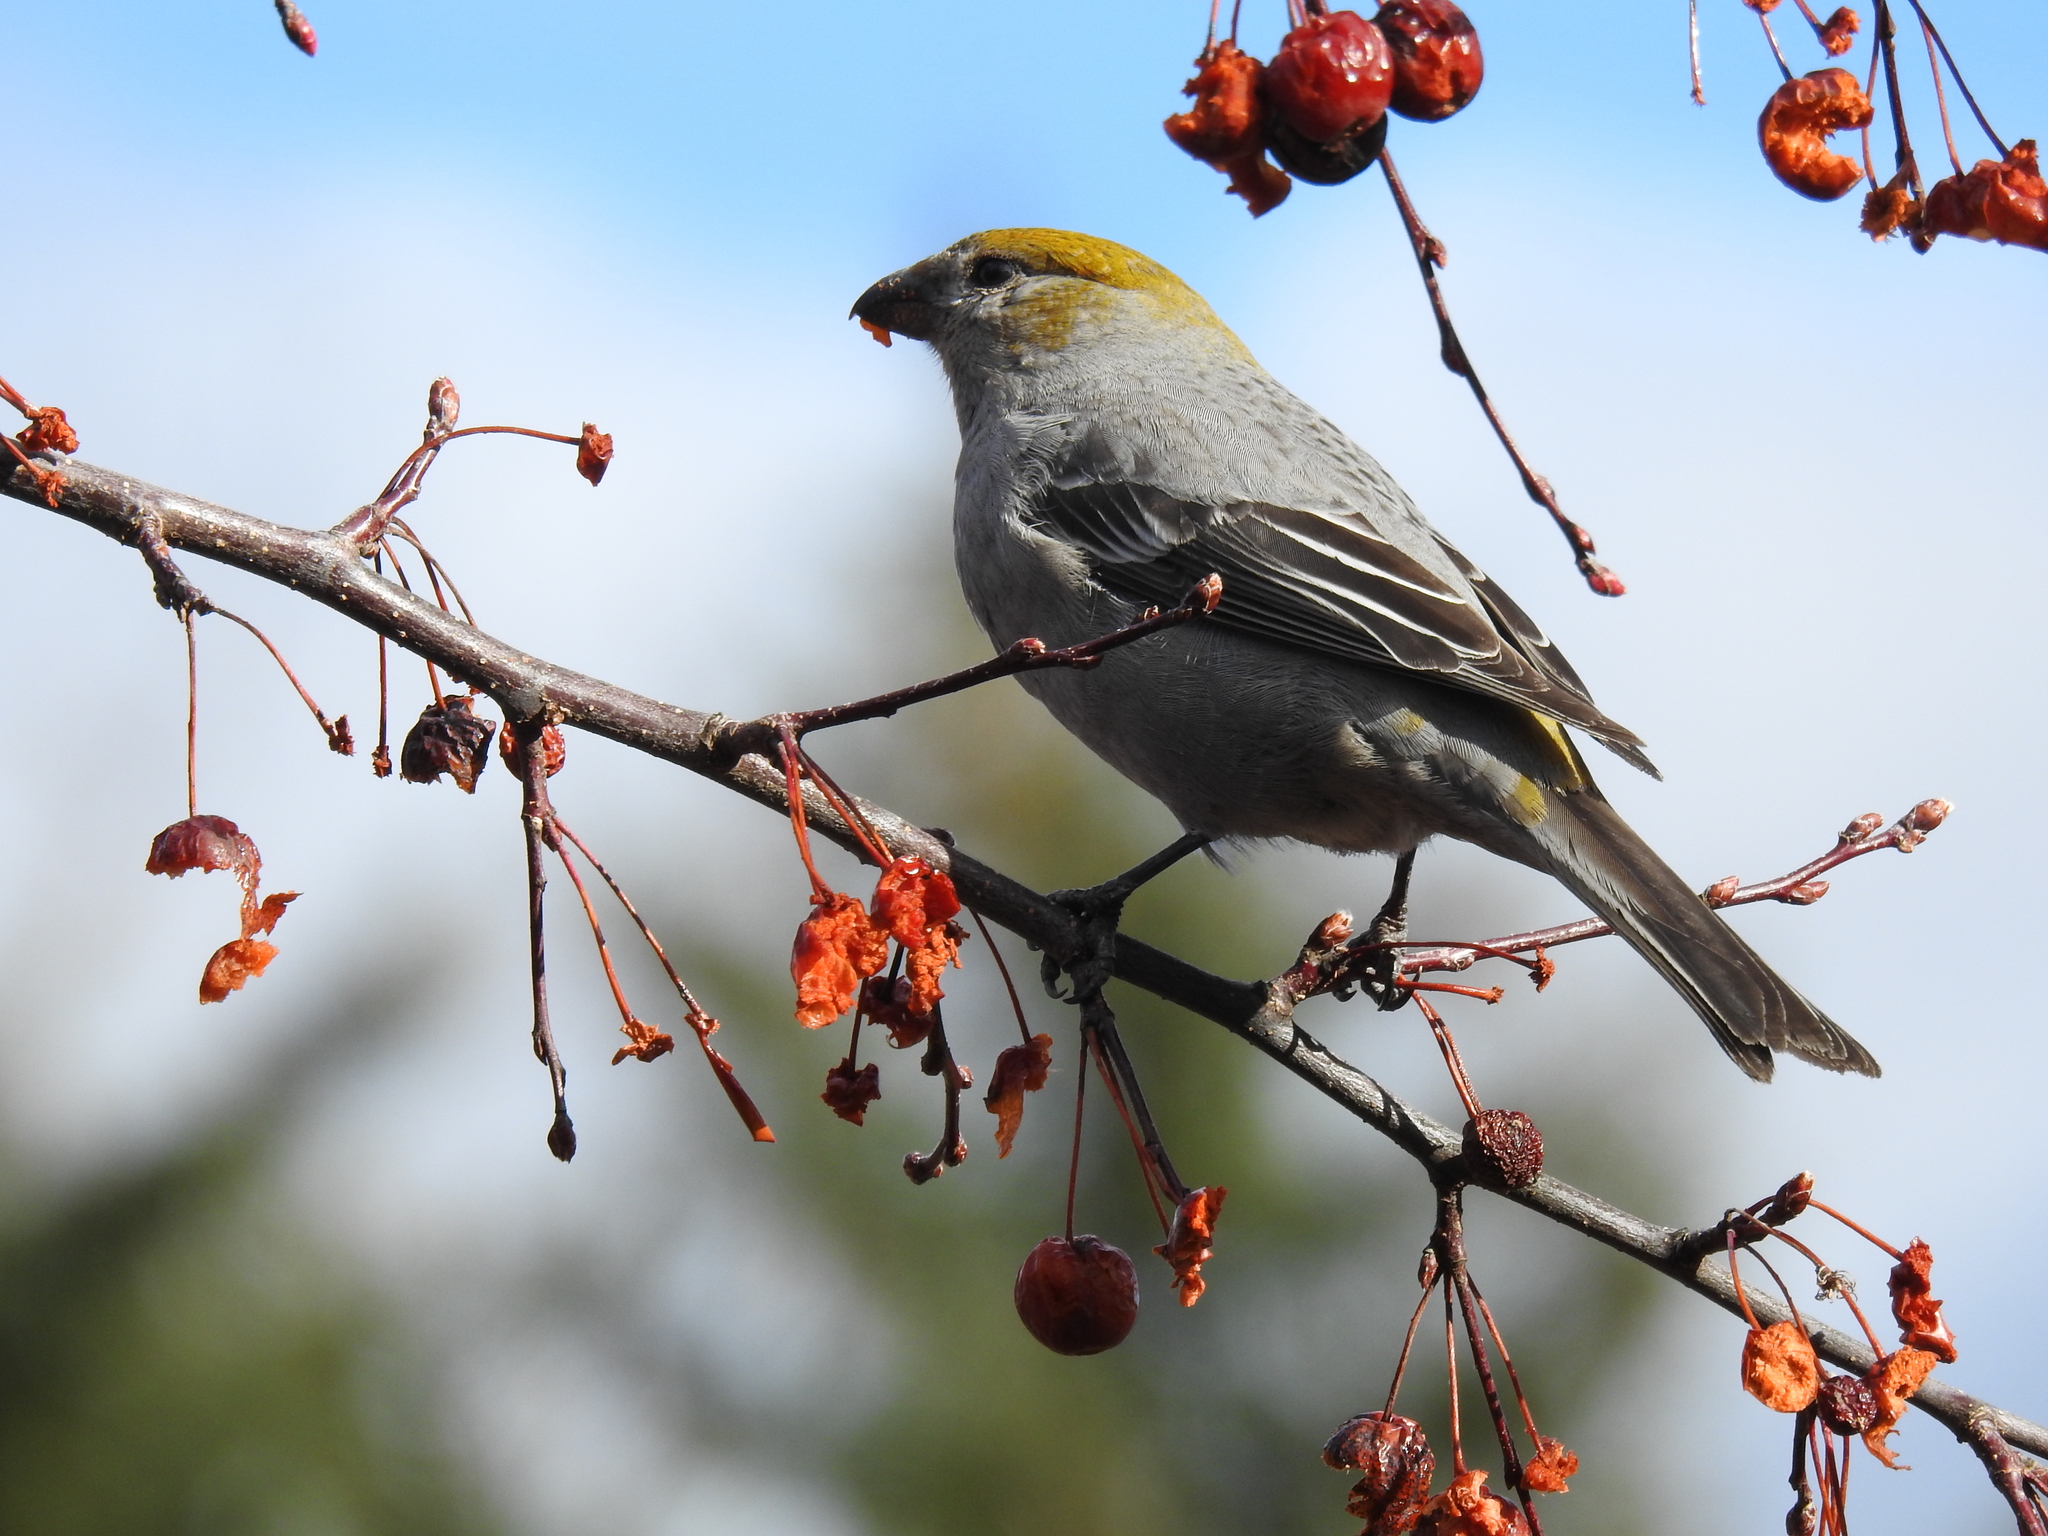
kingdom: Animalia
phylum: Chordata
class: Aves
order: Passeriformes
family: Fringillidae
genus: Pinicola
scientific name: Pinicola enucleator
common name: Pine grosbeak
